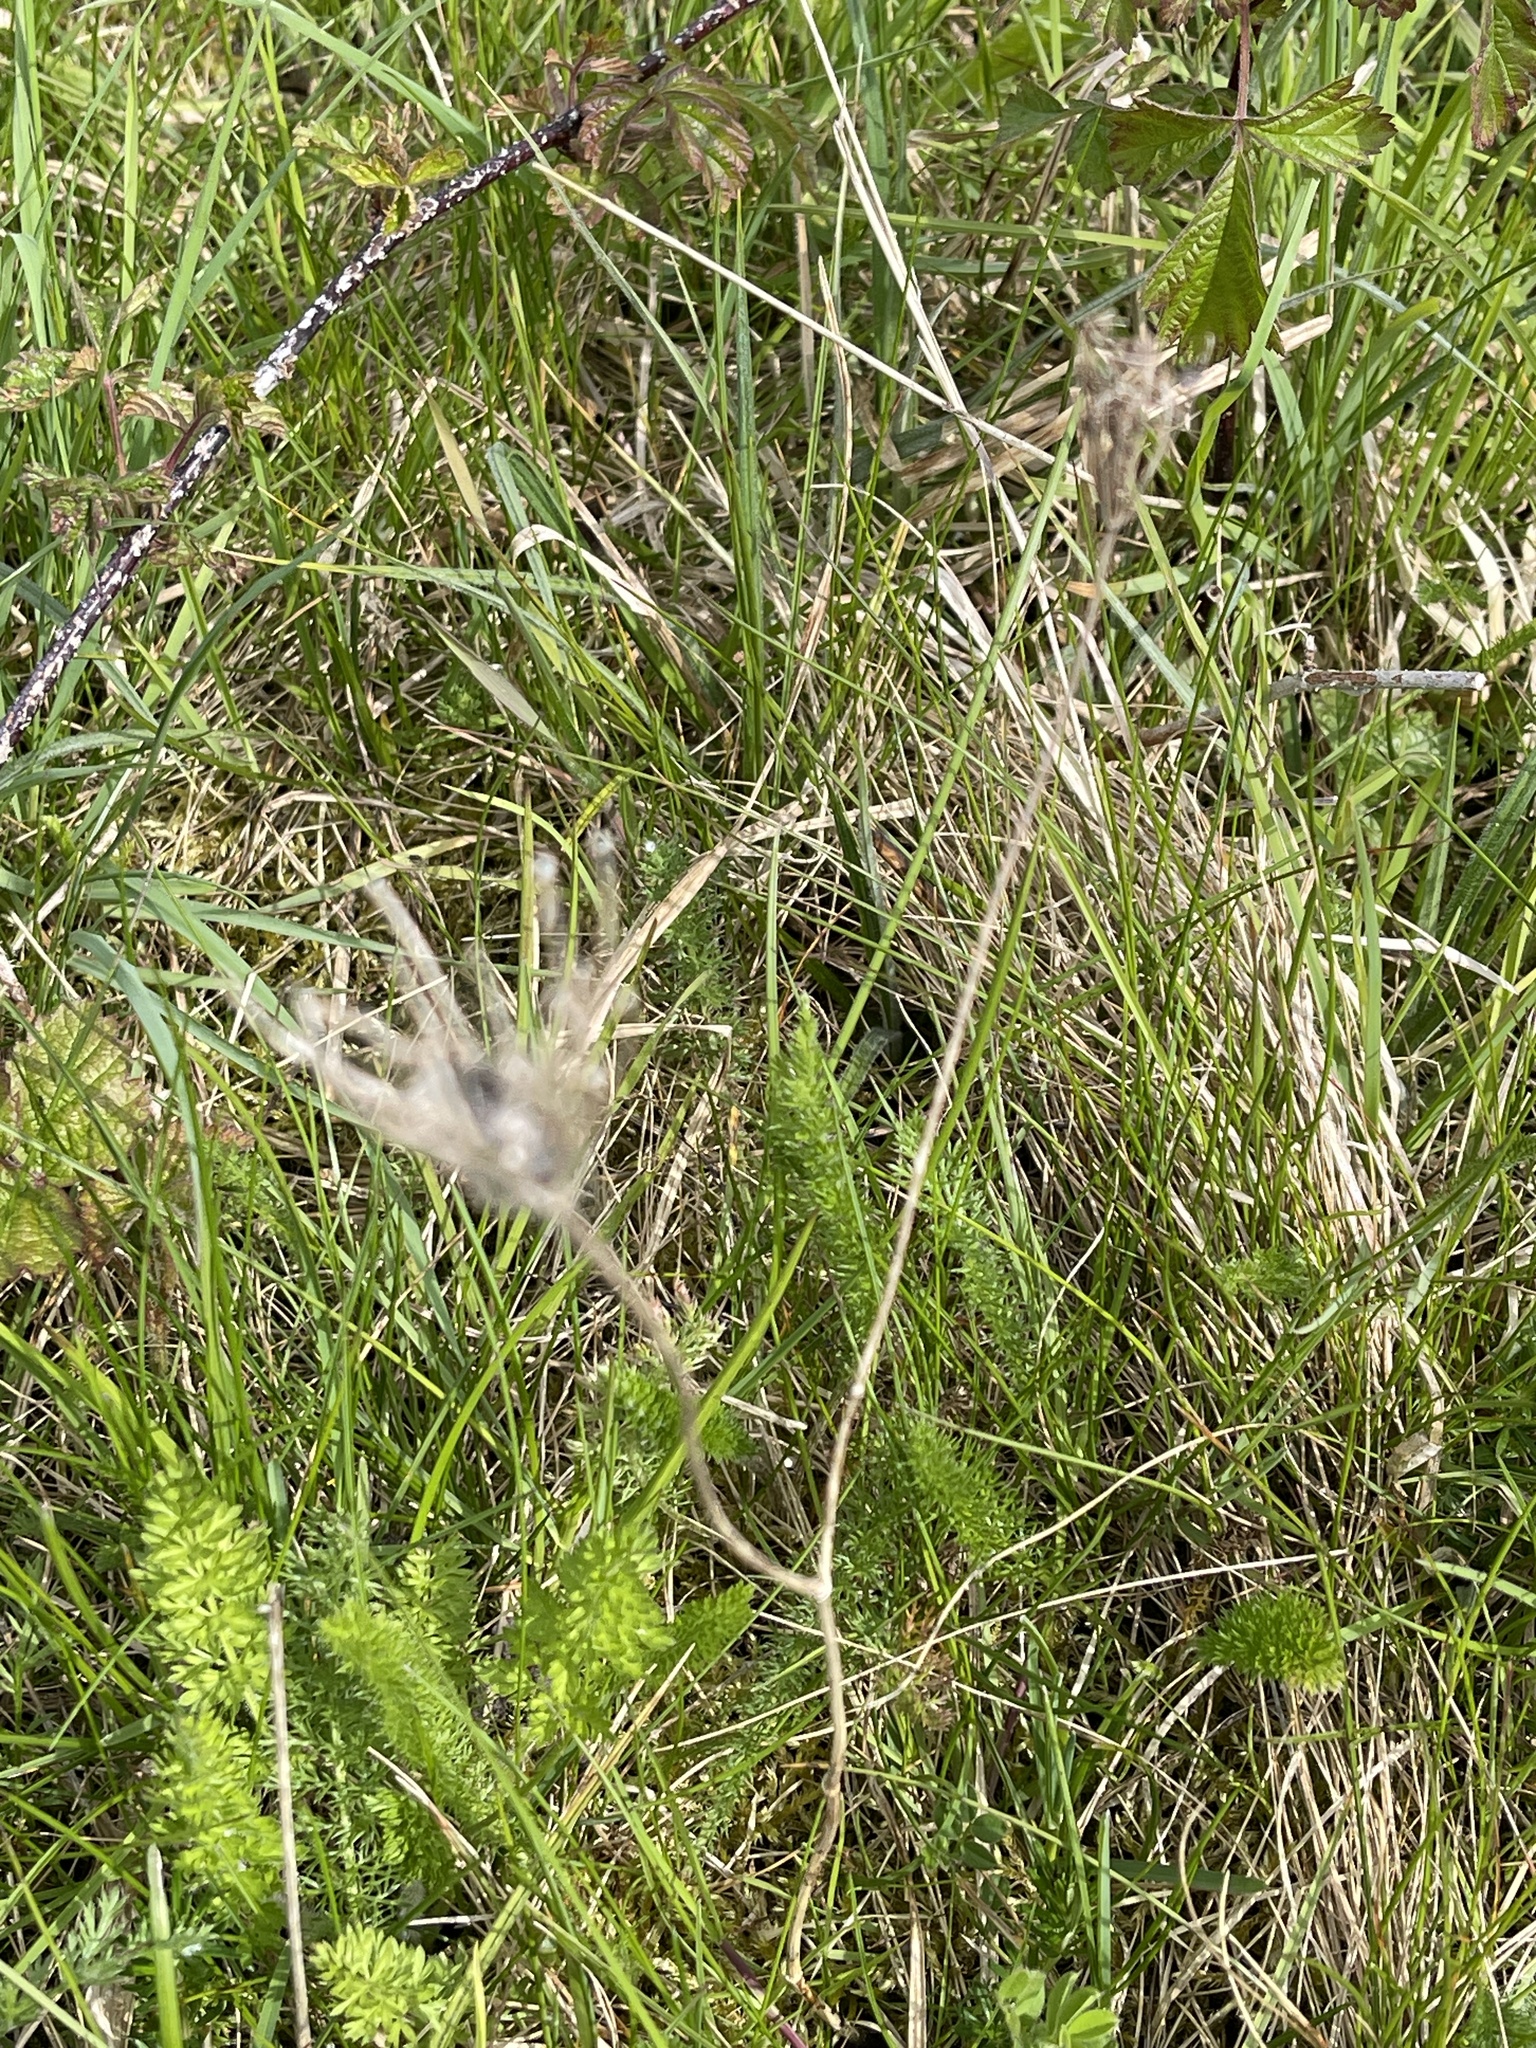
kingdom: Plantae
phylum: Tracheophyta
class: Magnoliopsida
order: Apiales
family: Apiaceae
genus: Daucus
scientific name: Daucus carota
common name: Wild carrot
